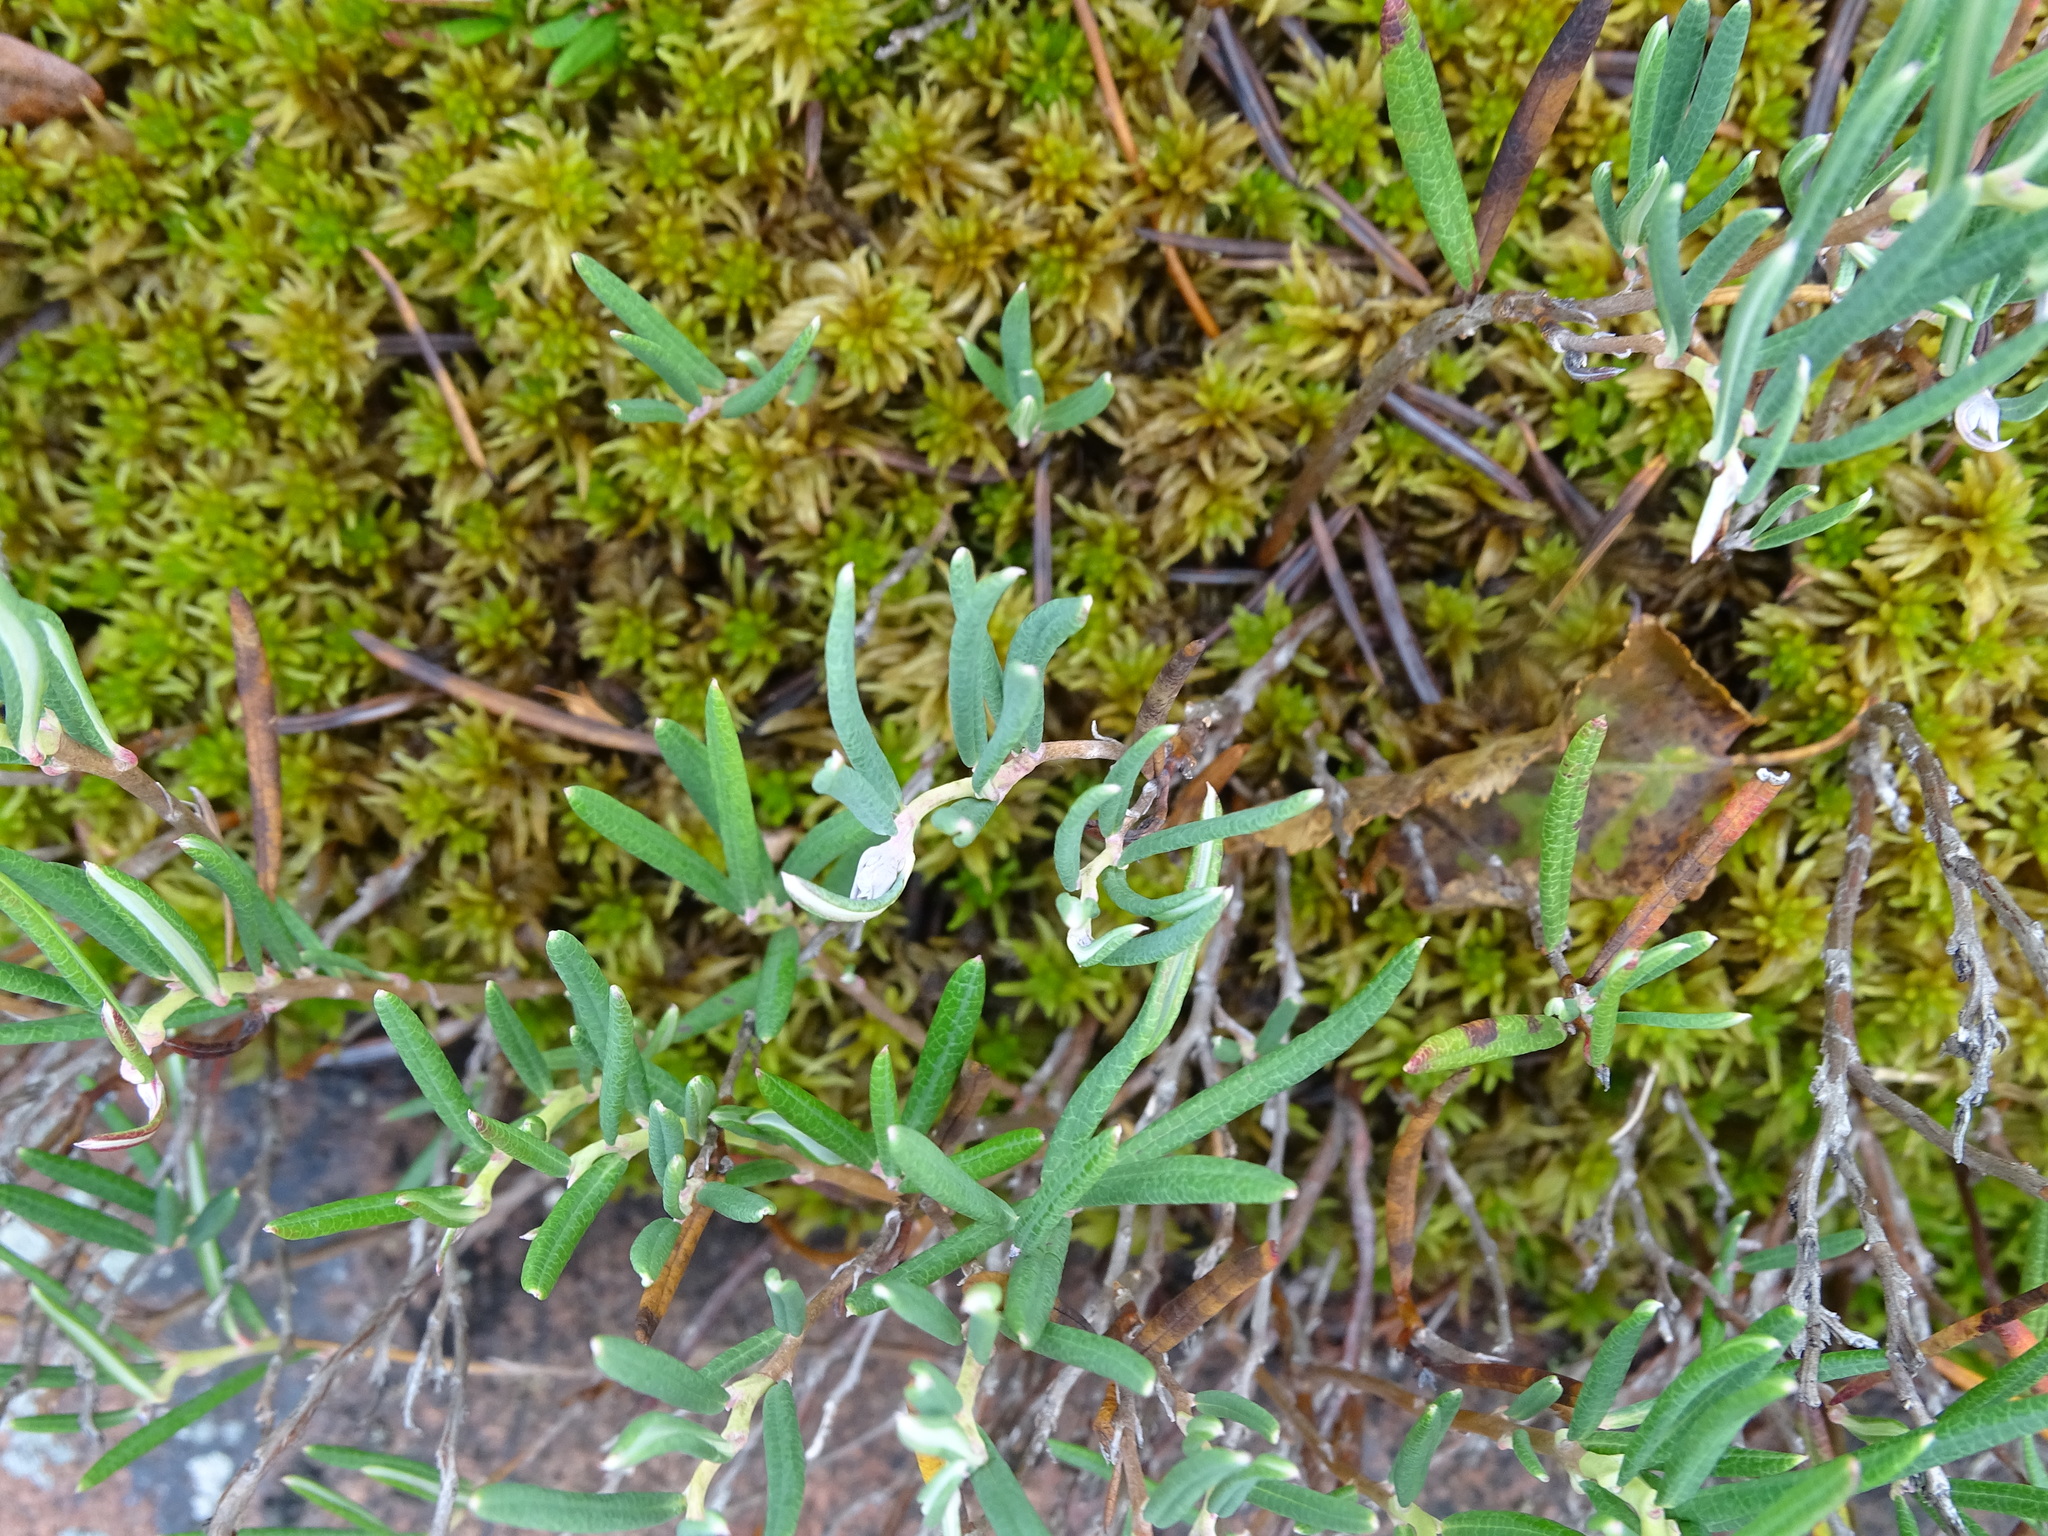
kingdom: Plantae
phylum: Tracheophyta
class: Magnoliopsida
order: Ericales
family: Ericaceae
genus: Andromeda
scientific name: Andromeda polifolia
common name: Bog-rosemary
